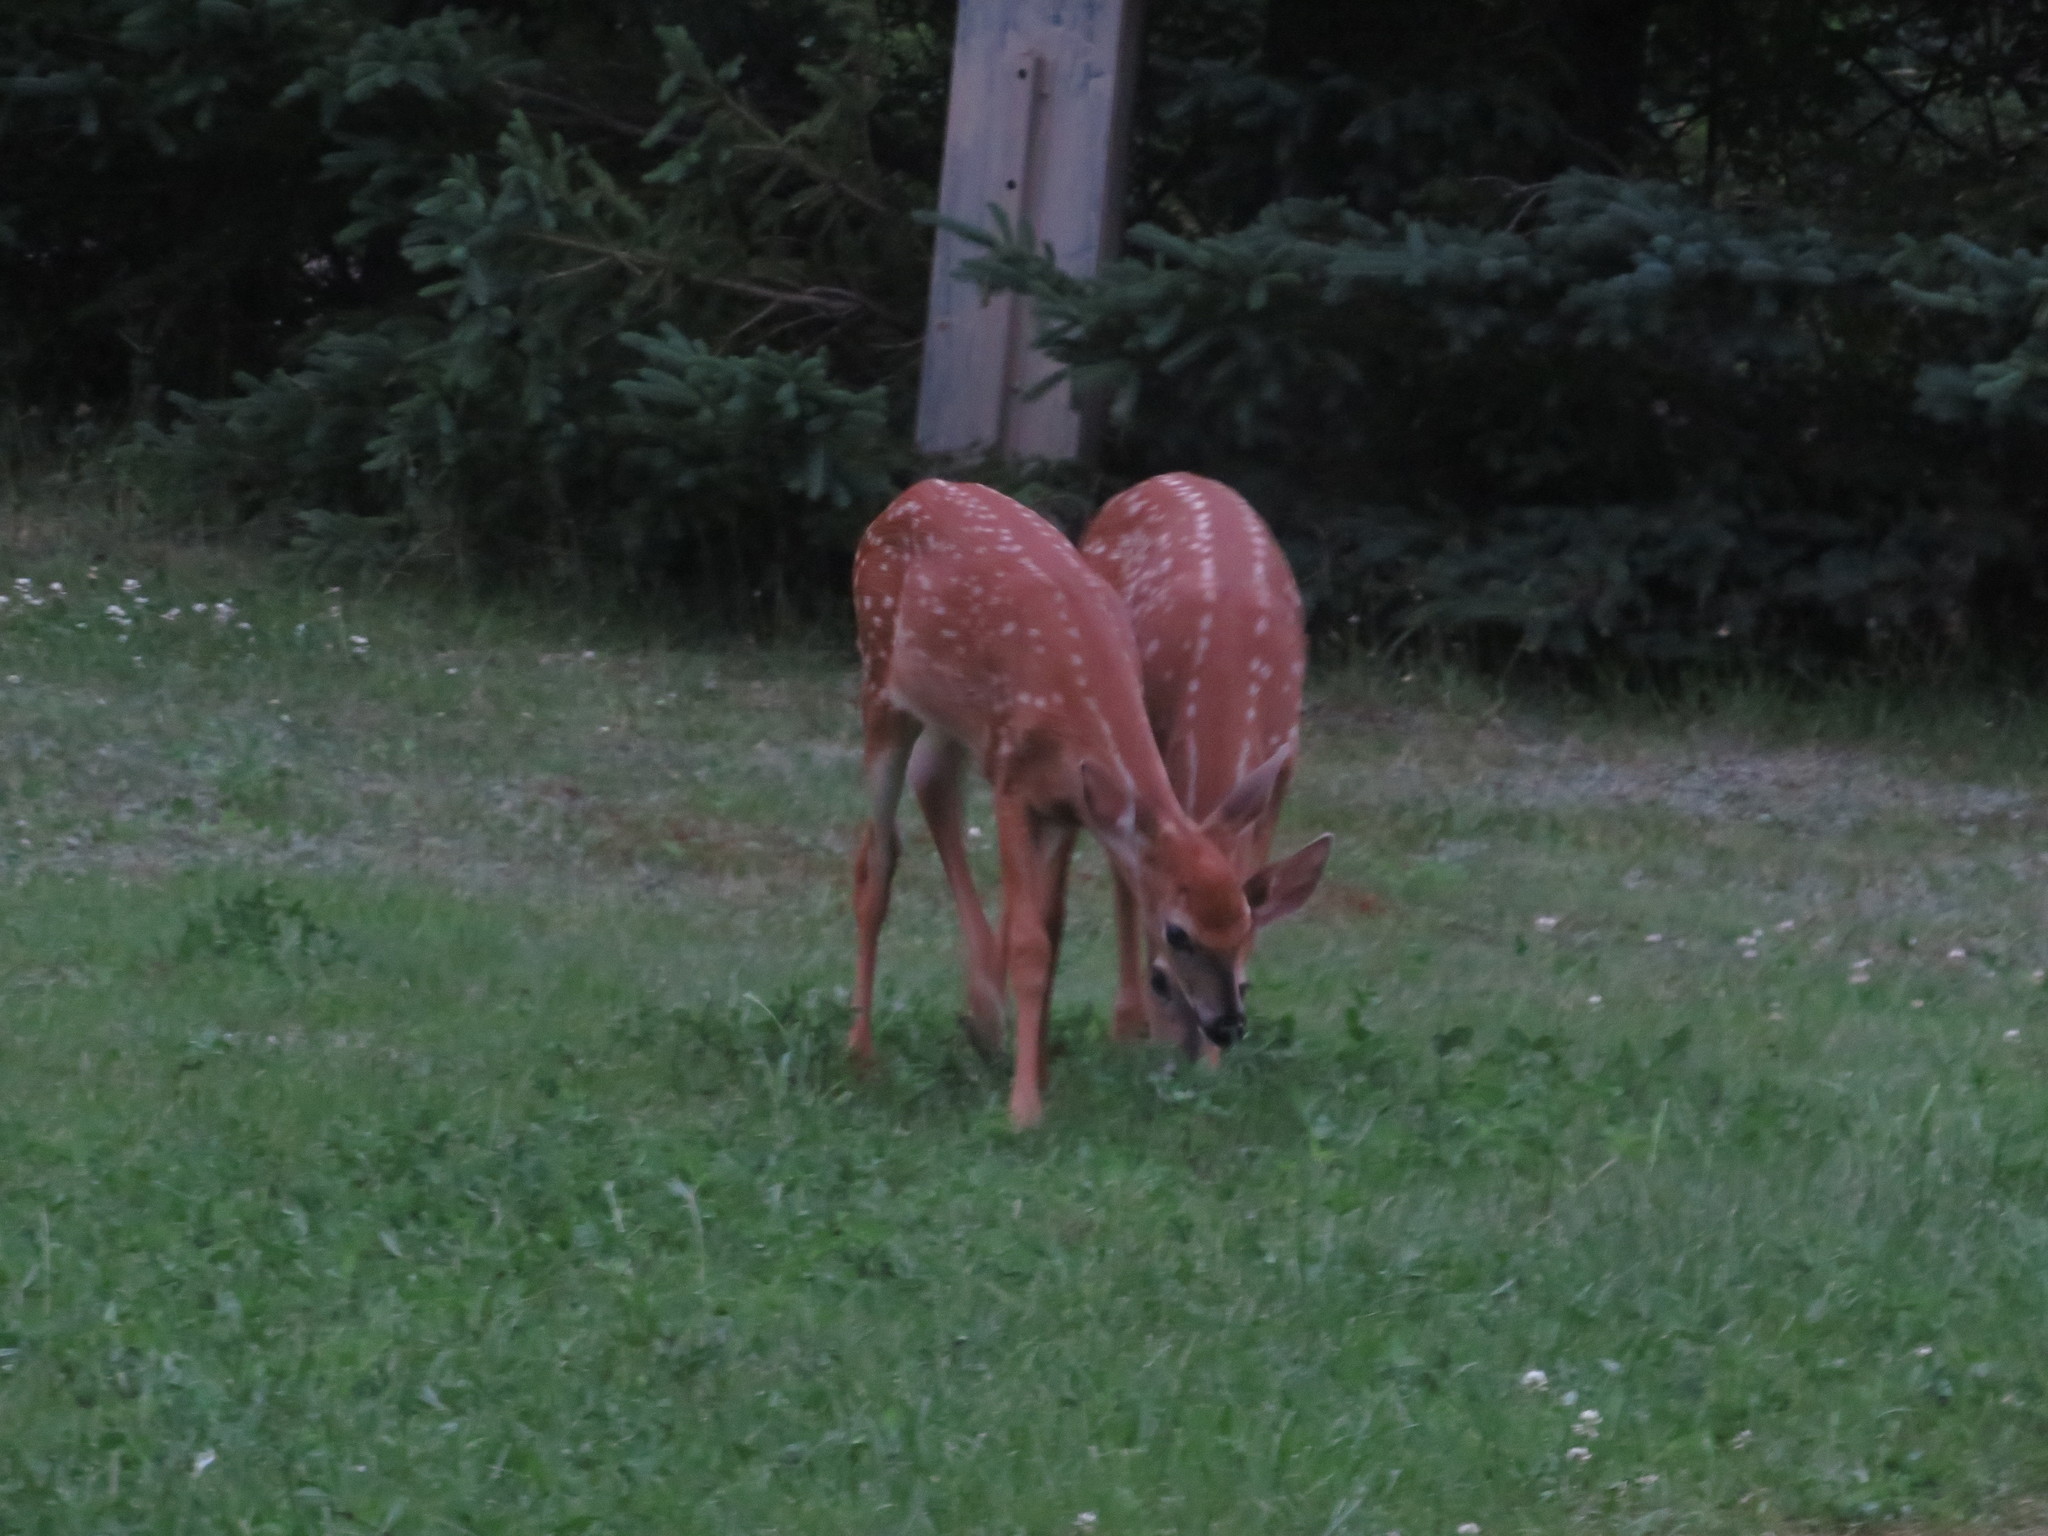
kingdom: Animalia
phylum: Chordata
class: Mammalia
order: Artiodactyla
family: Cervidae
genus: Odocoileus
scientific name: Odocoileus virginianus
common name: White-tailed deer
